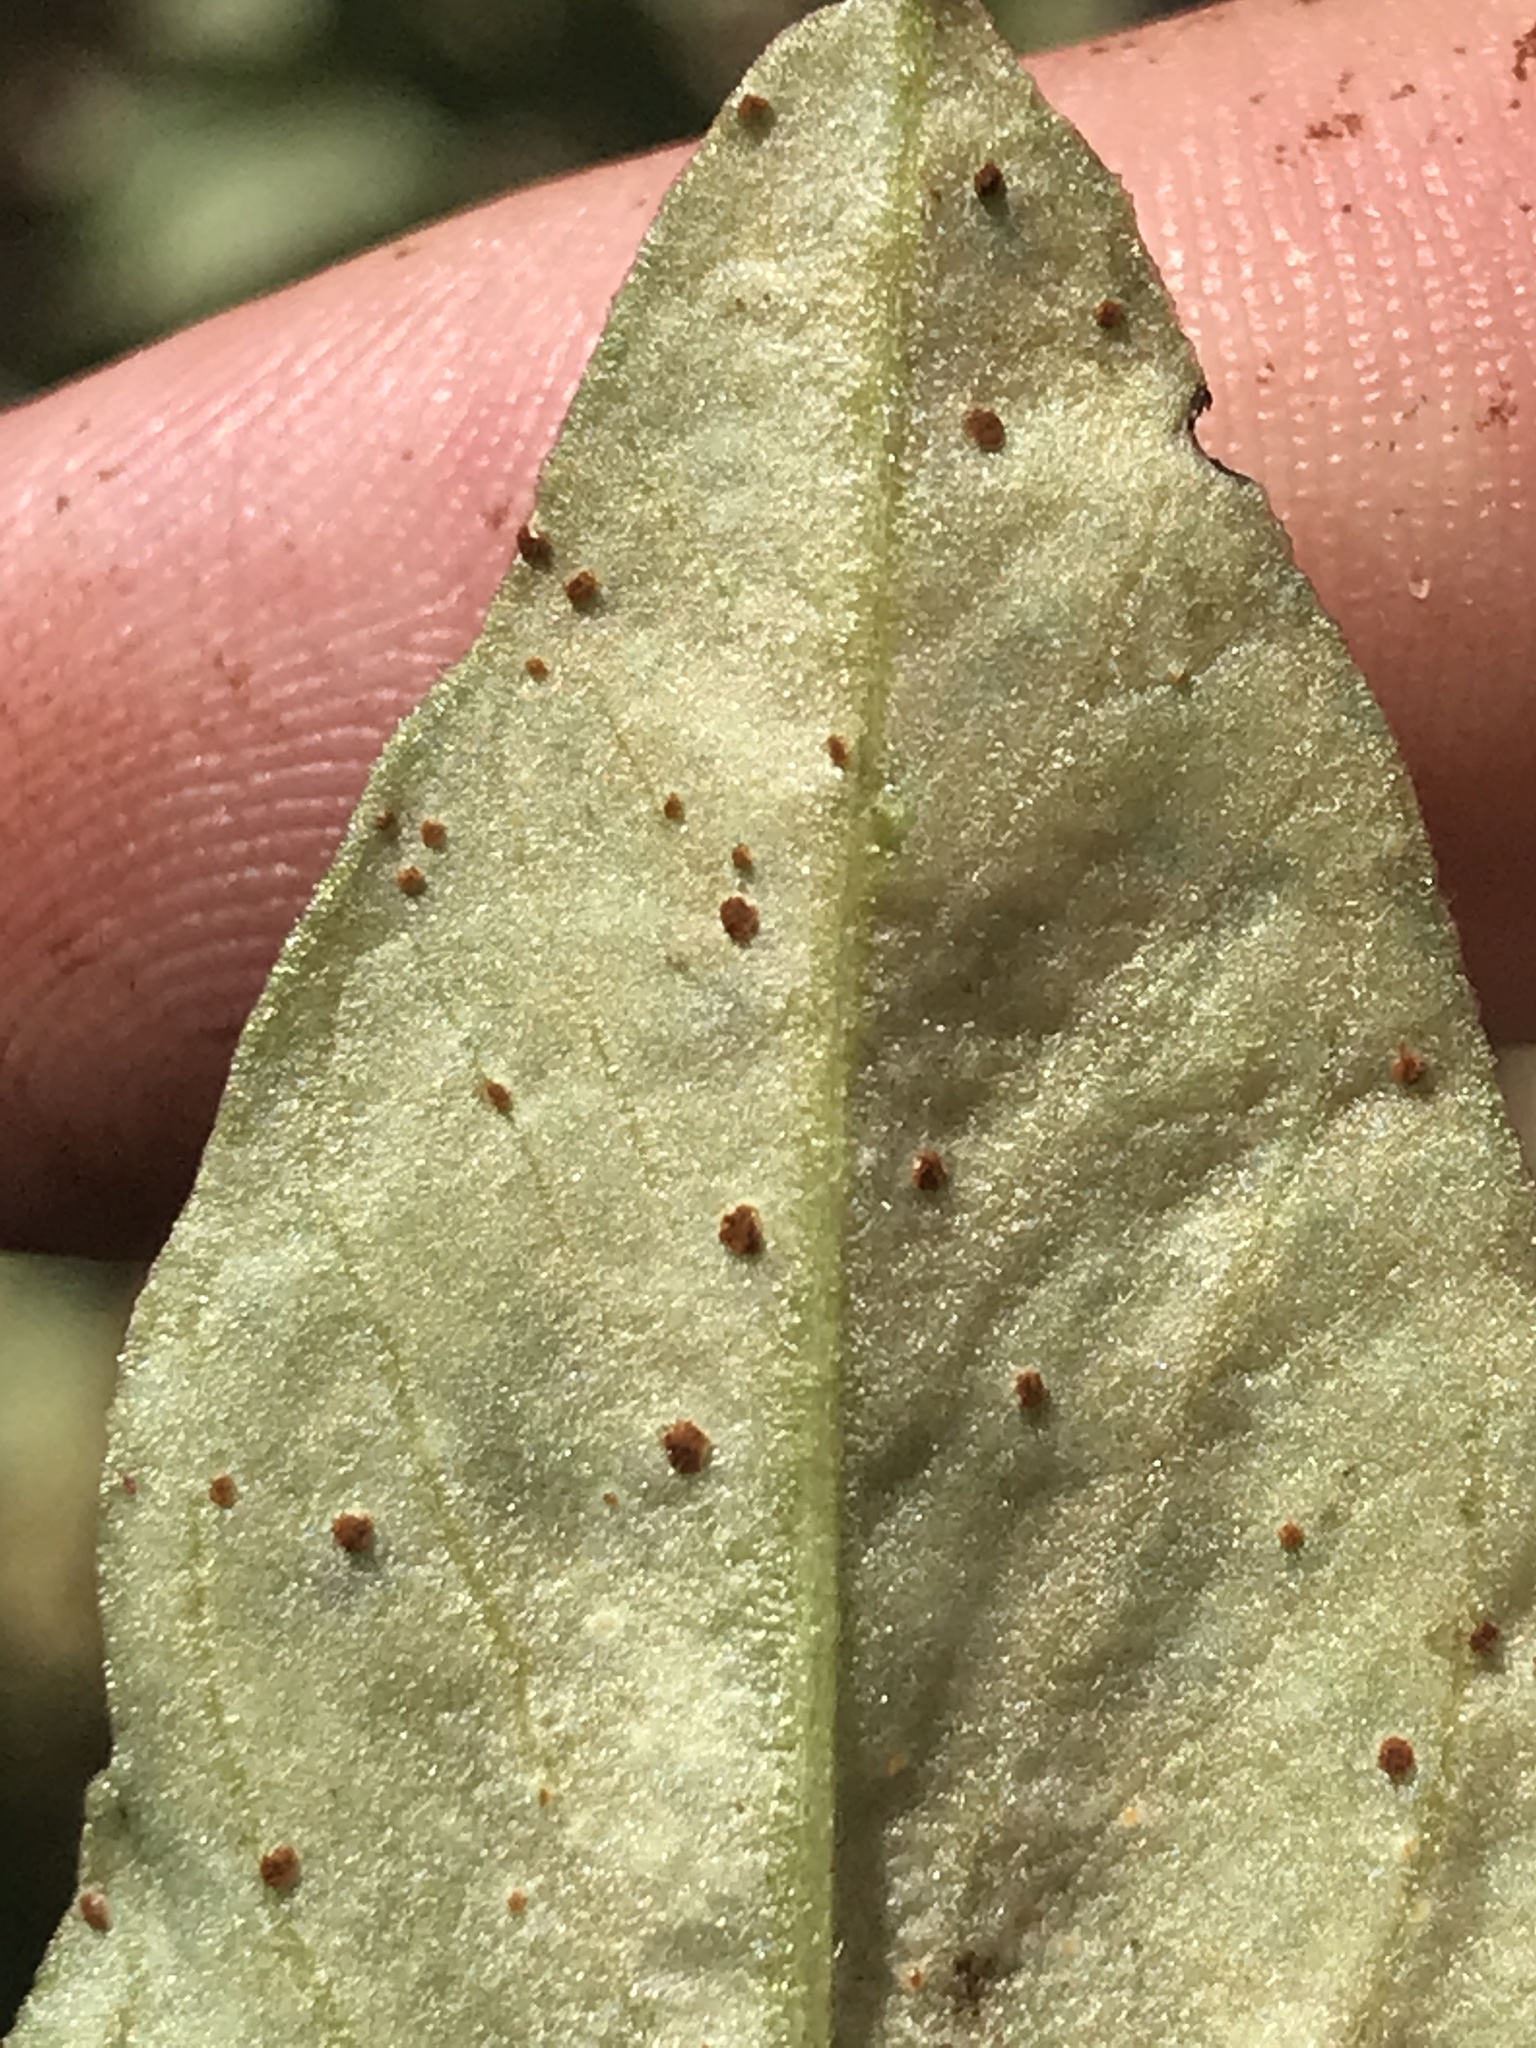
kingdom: Fungi
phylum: Basidiomycota
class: Pucciniomycetes
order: Pucciniales
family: Pucciniaceae
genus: Uromyces
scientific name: Uromyces viciae-fabae
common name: Broad bean rust
